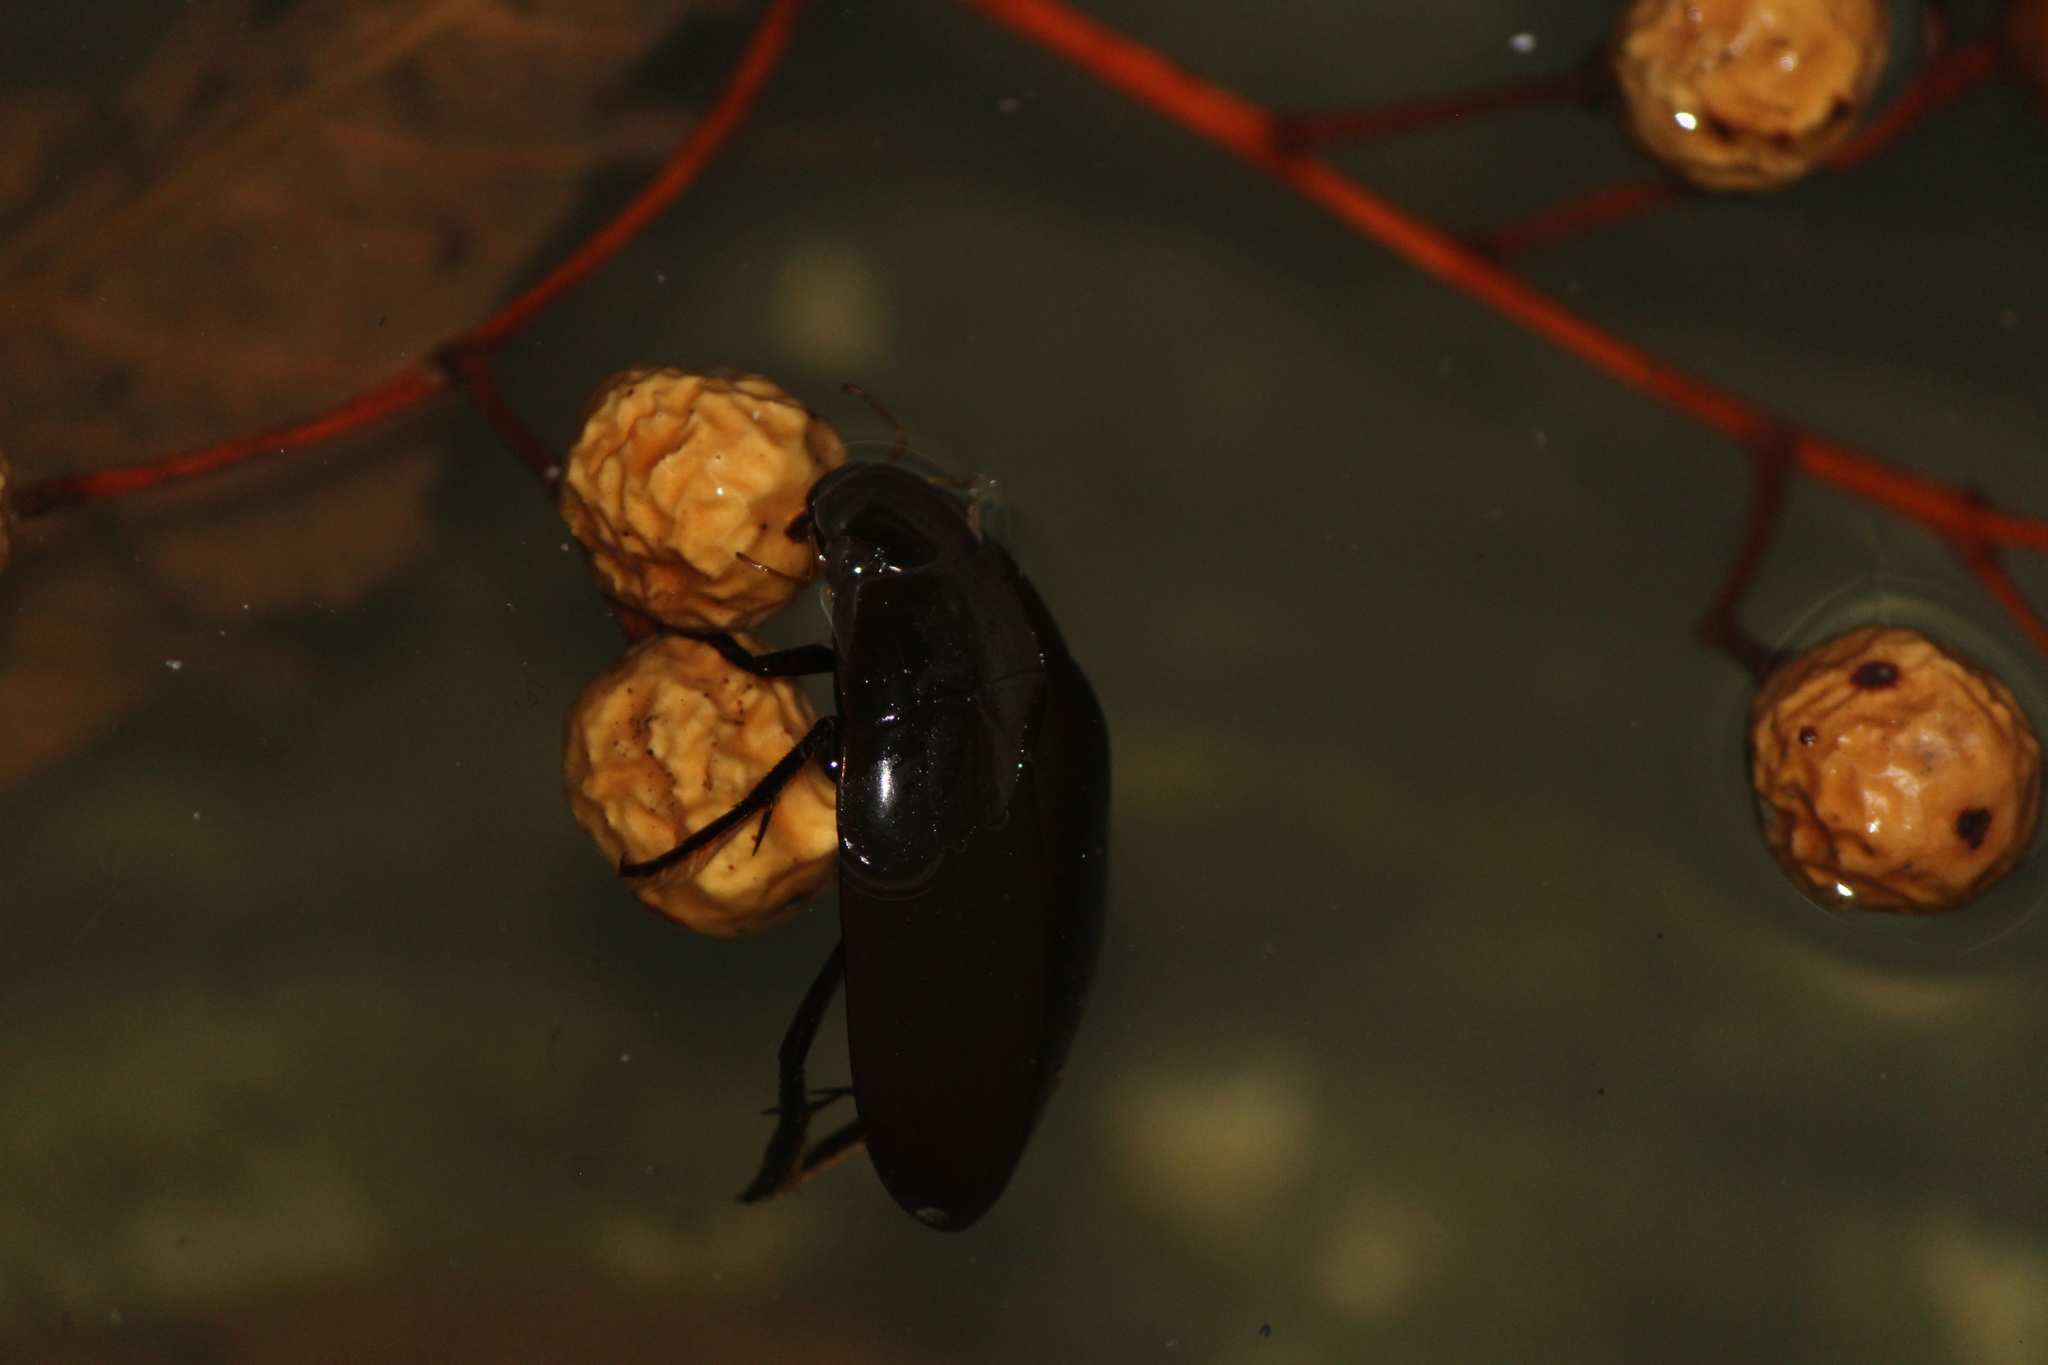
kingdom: Animalia
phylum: Arthropoda
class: Insecta
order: Coleoptera
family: Hydrophilidae
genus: Hydrophilus
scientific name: Hydrophilus
